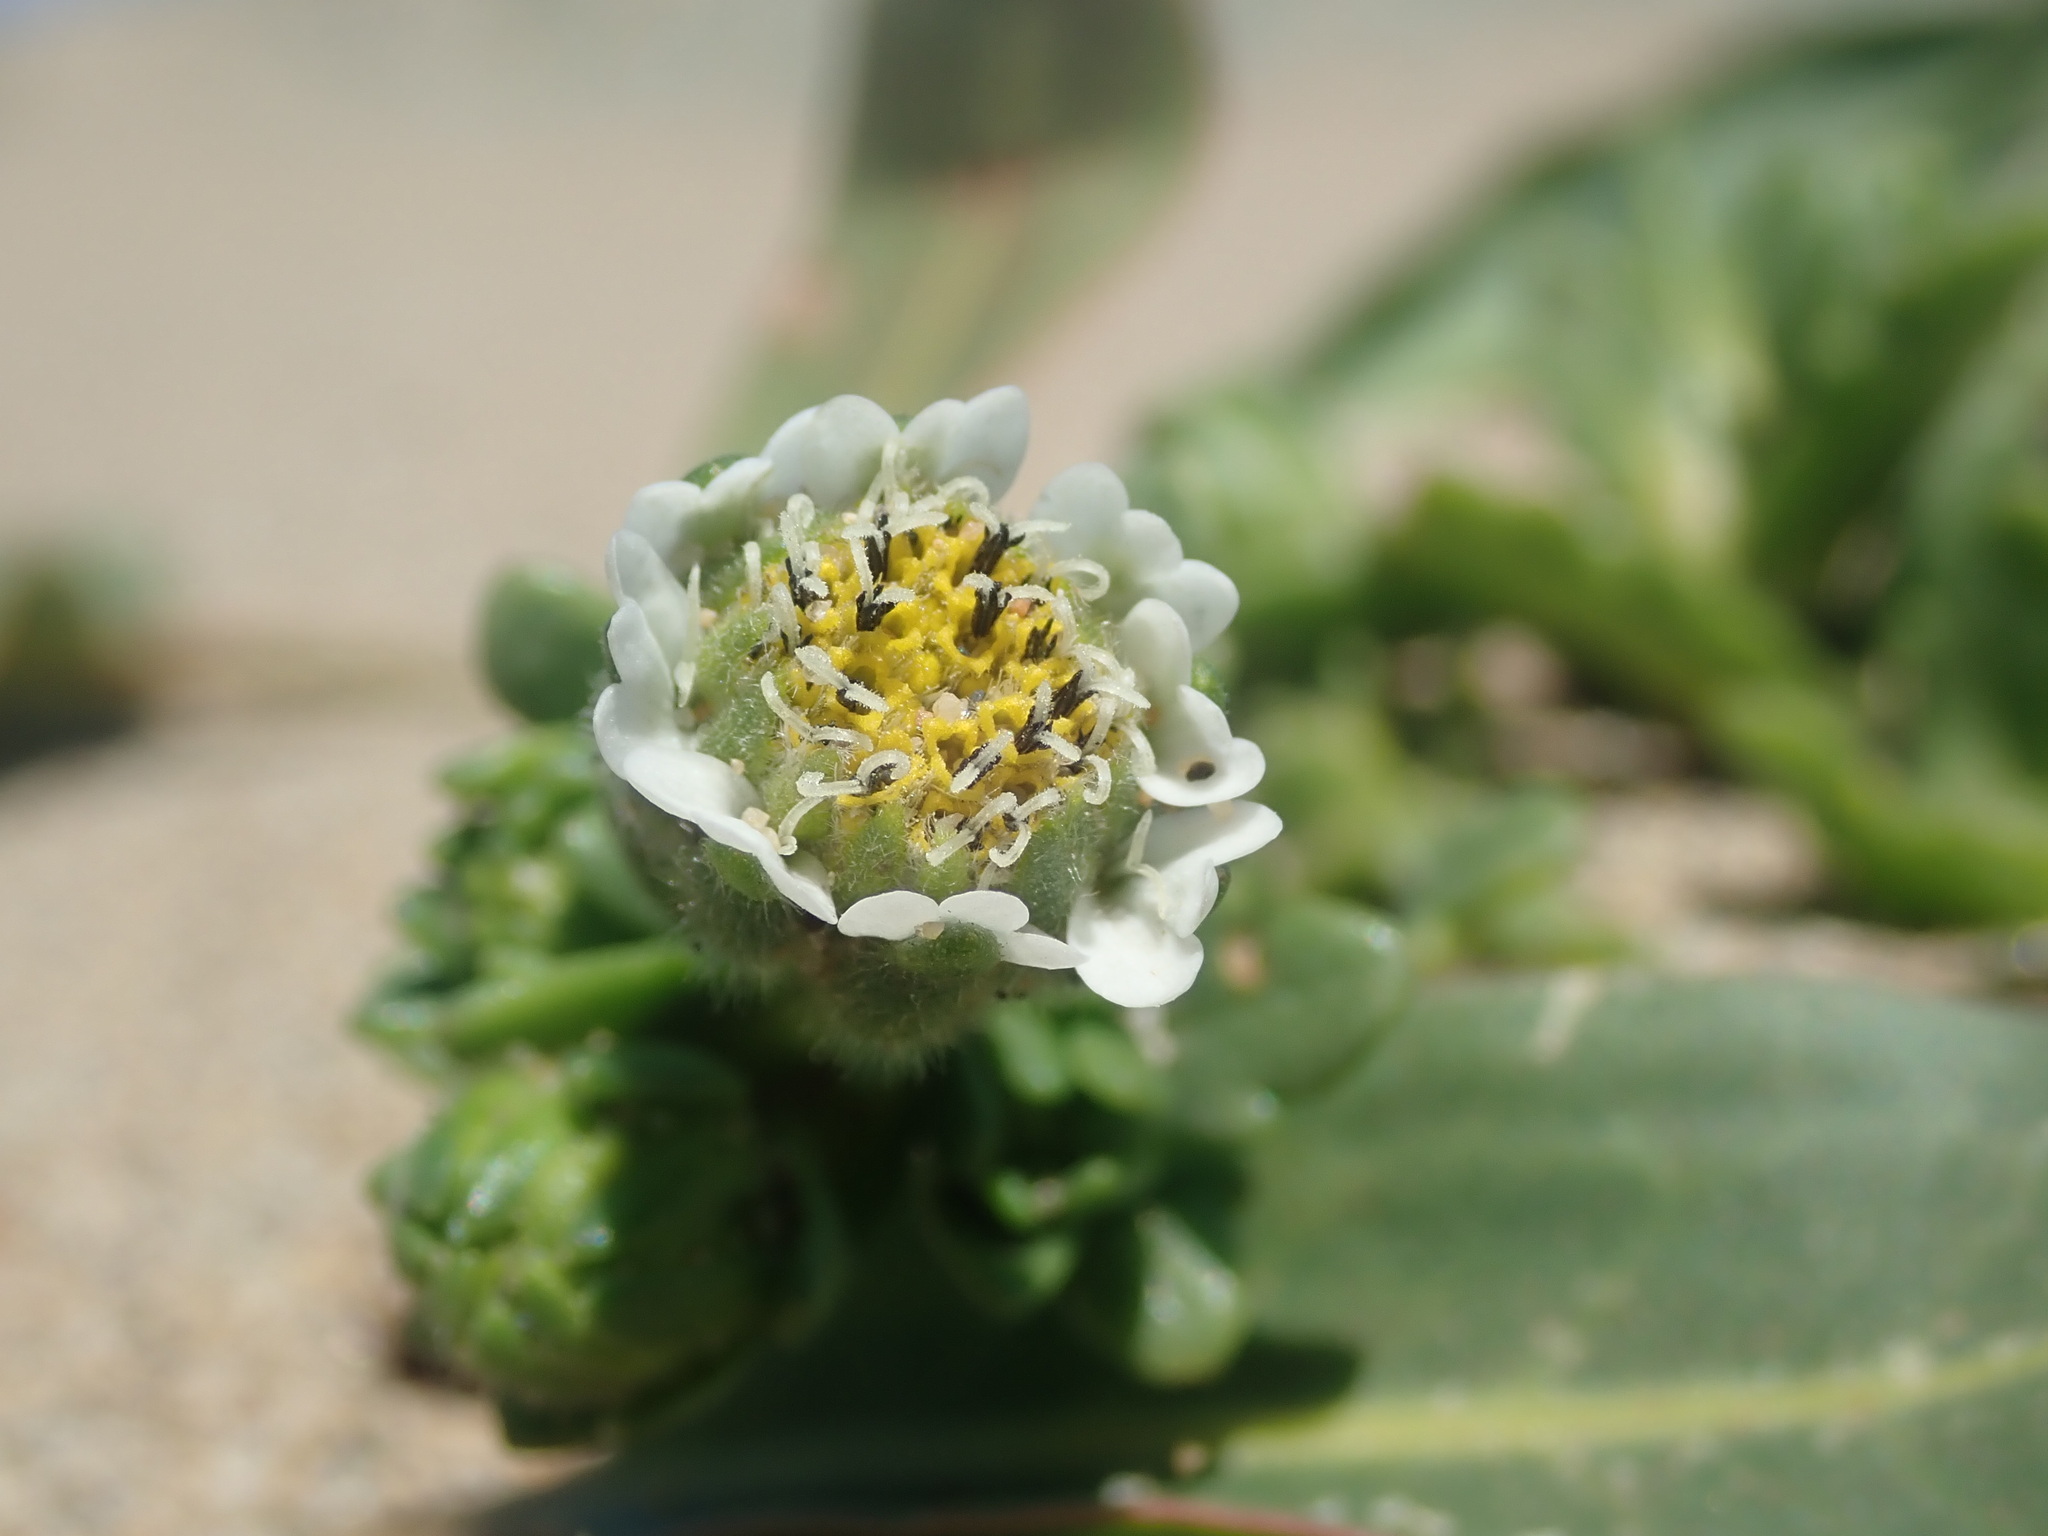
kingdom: Plantae
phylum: Tracheophyta
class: Magnoliopsida
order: Asterales
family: Asteraceae
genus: Layia
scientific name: Layia carnosa
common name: Beach layia
